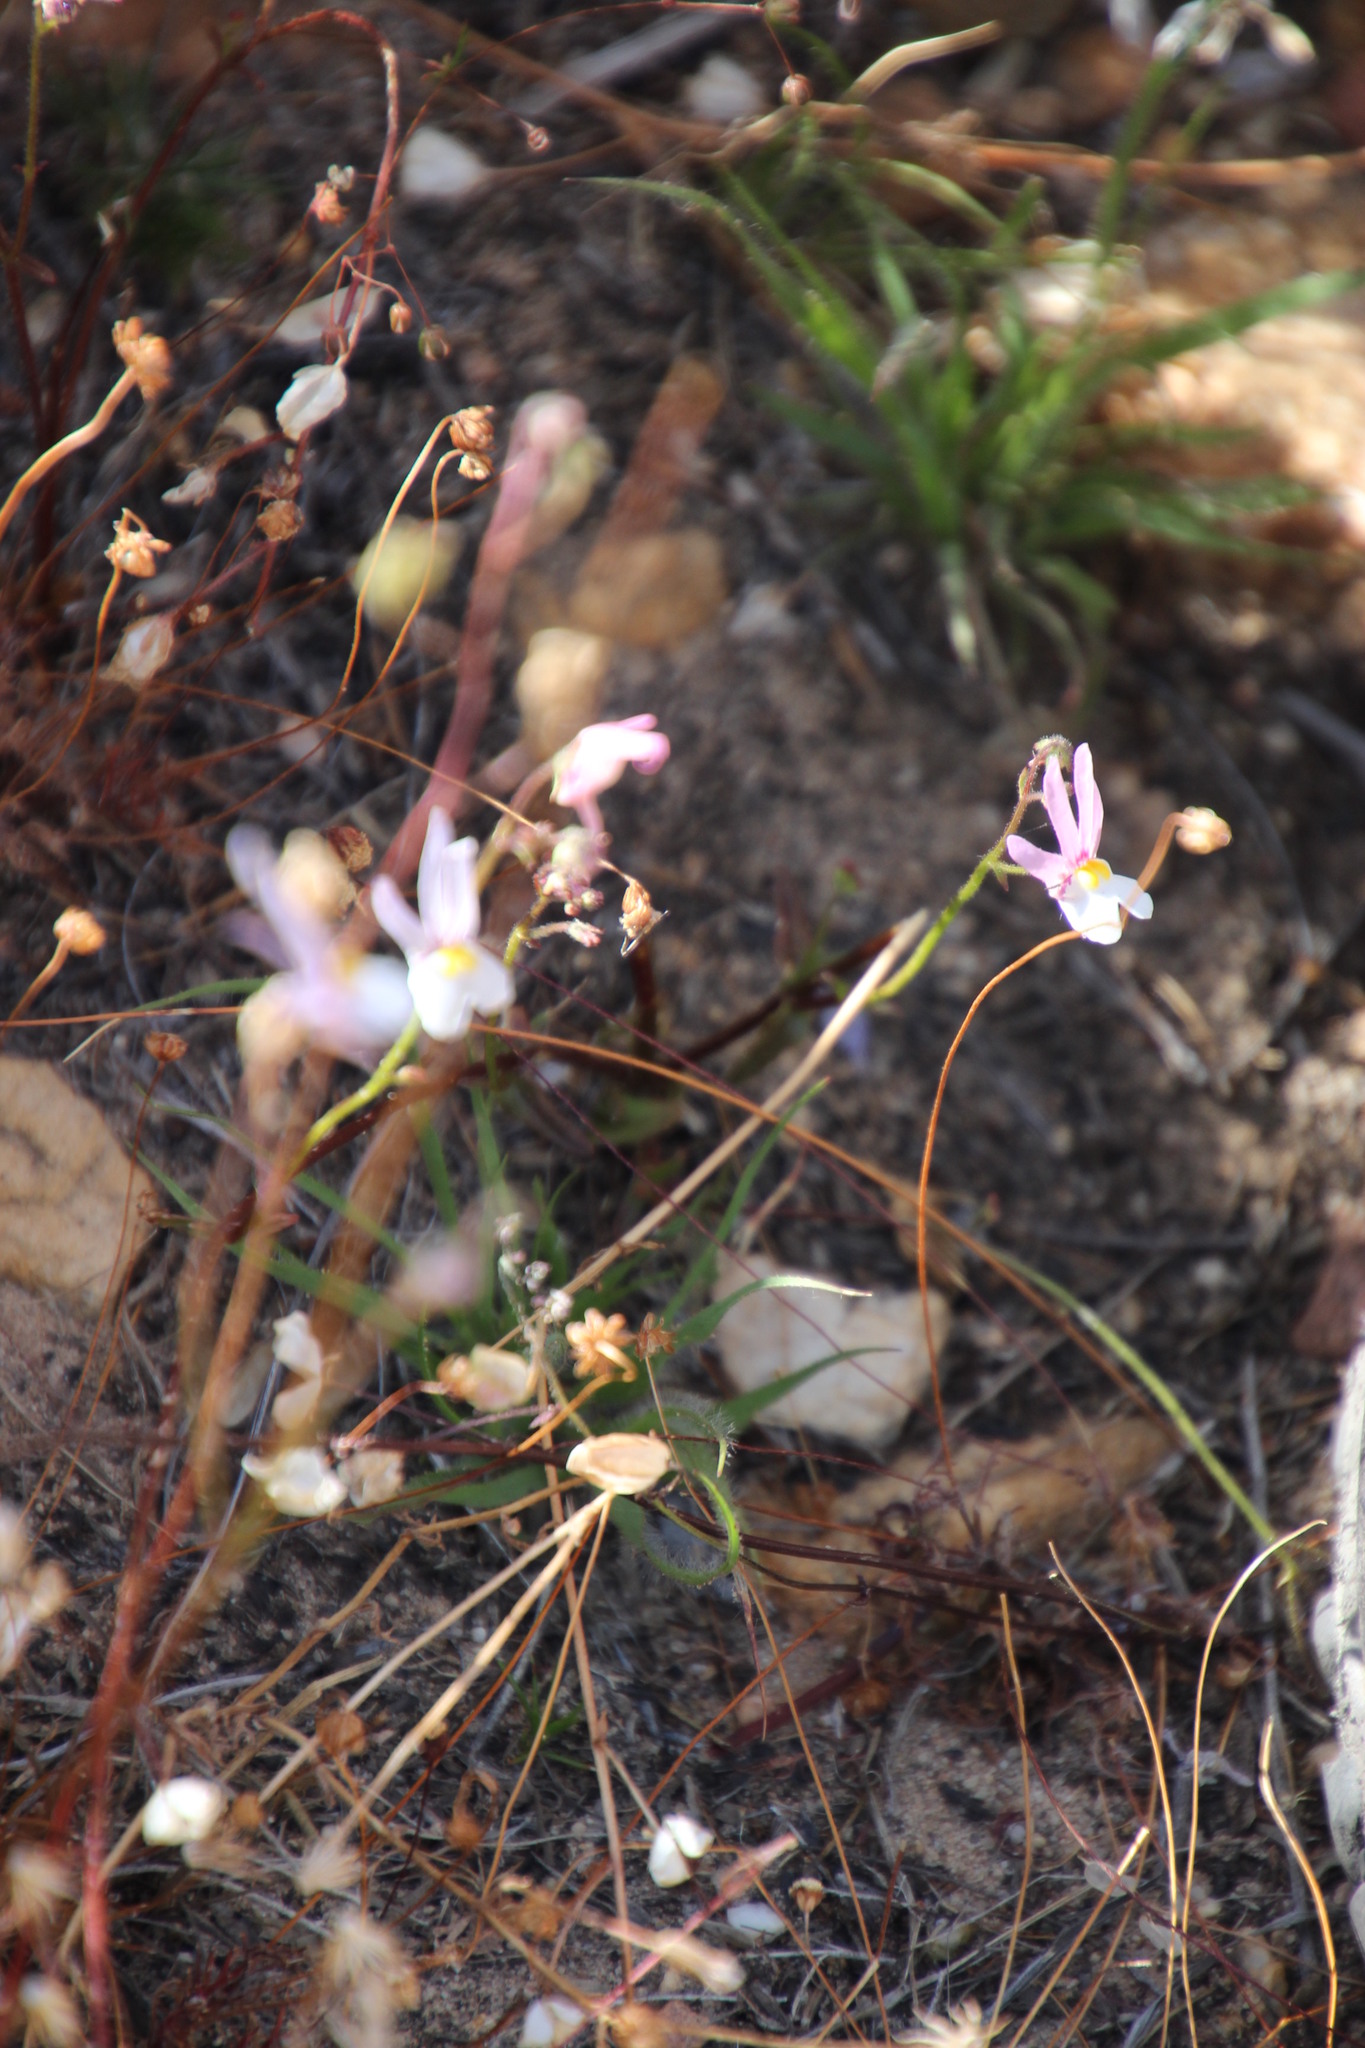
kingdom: Plantae
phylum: Tracheophyta
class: Magnoliopsida
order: Lamiales
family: Scrophulariaceae
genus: Nemesia
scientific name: Nemesia cheiranthus
